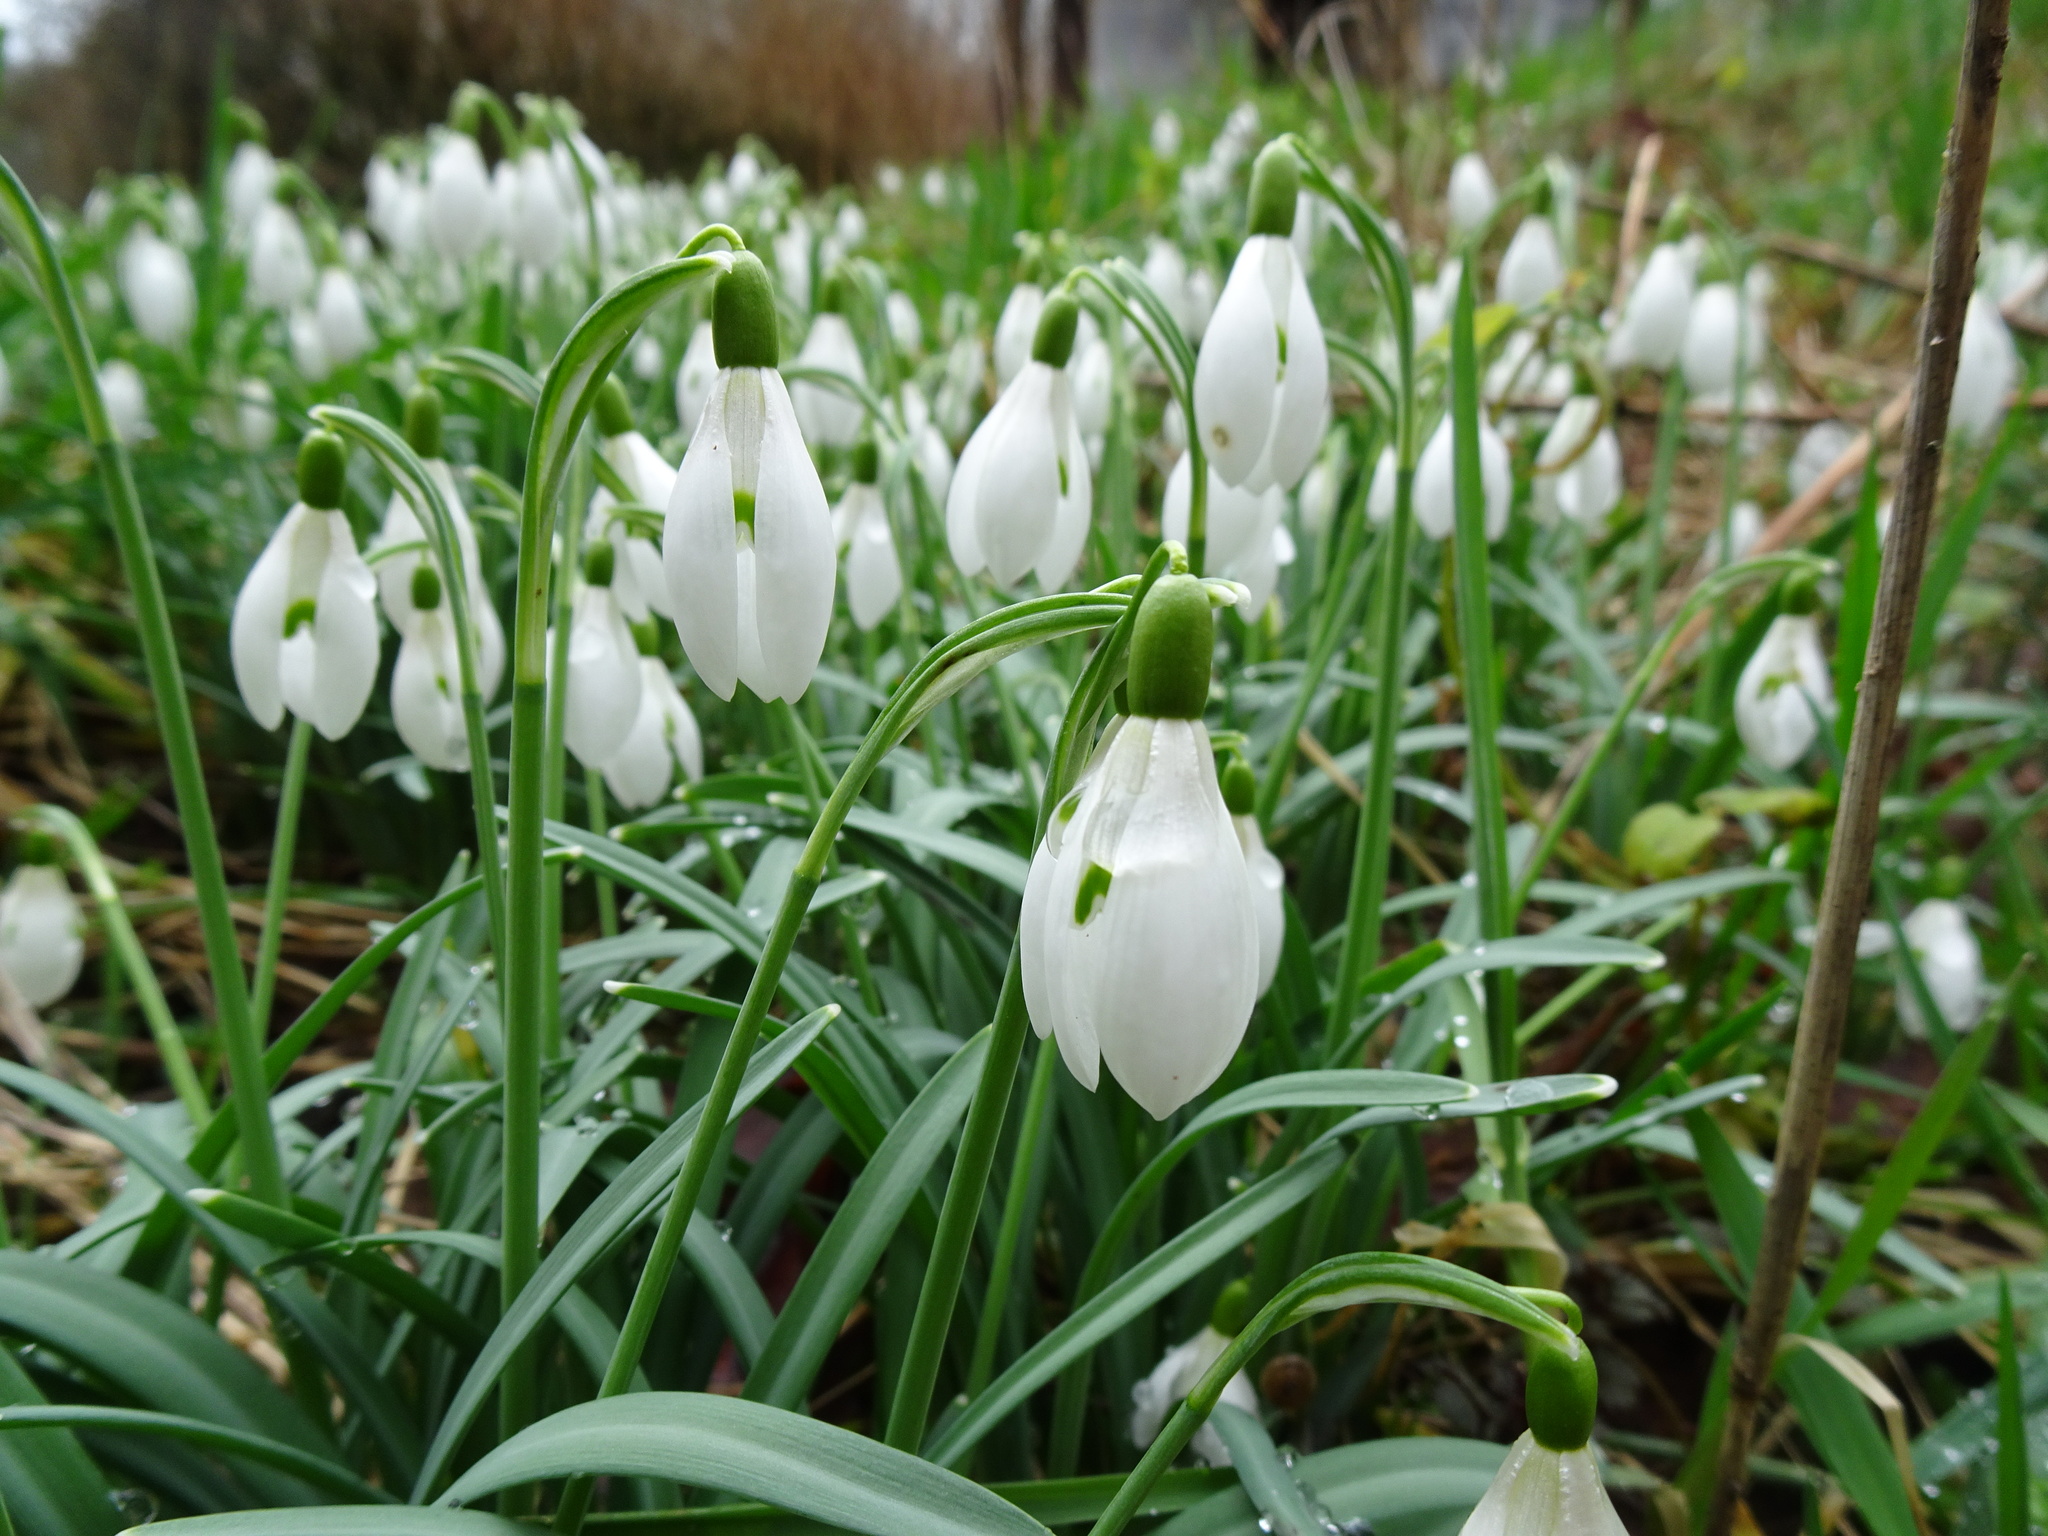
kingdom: Plantae
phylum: Tracheophyta
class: Liliopsida
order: Asparagales
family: Amaryllidaceae
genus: Galanthus
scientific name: Galanthus nivalis
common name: Snowdrop
